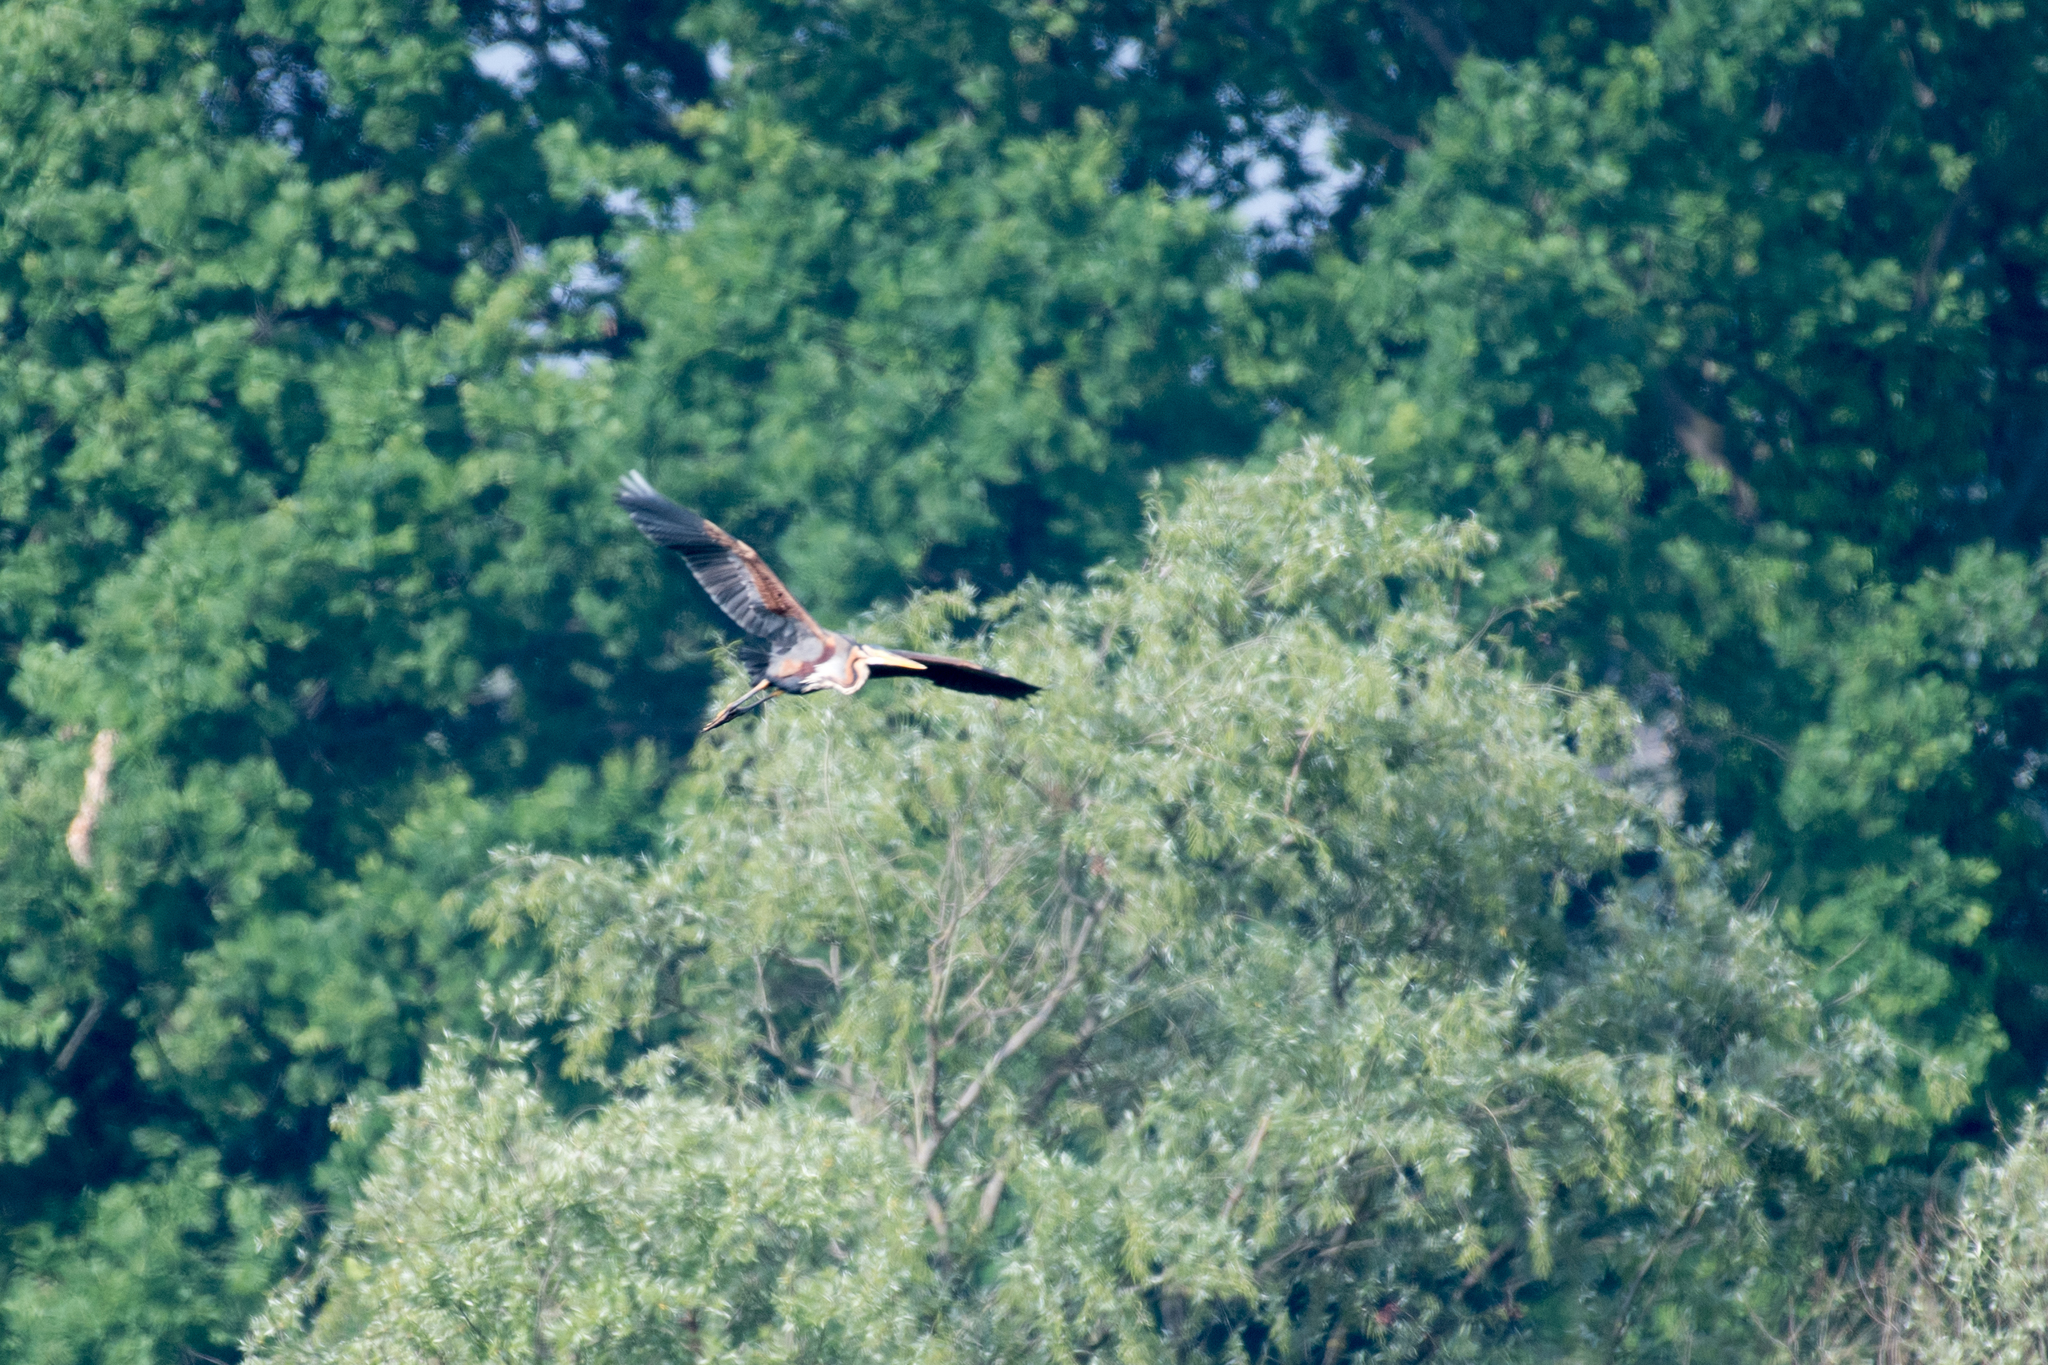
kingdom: Animalia
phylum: Chordata
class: Aves
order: Pelecaniformes
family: Ardeidae
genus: Ardea
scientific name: Ardea purpurea
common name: Purple heron
